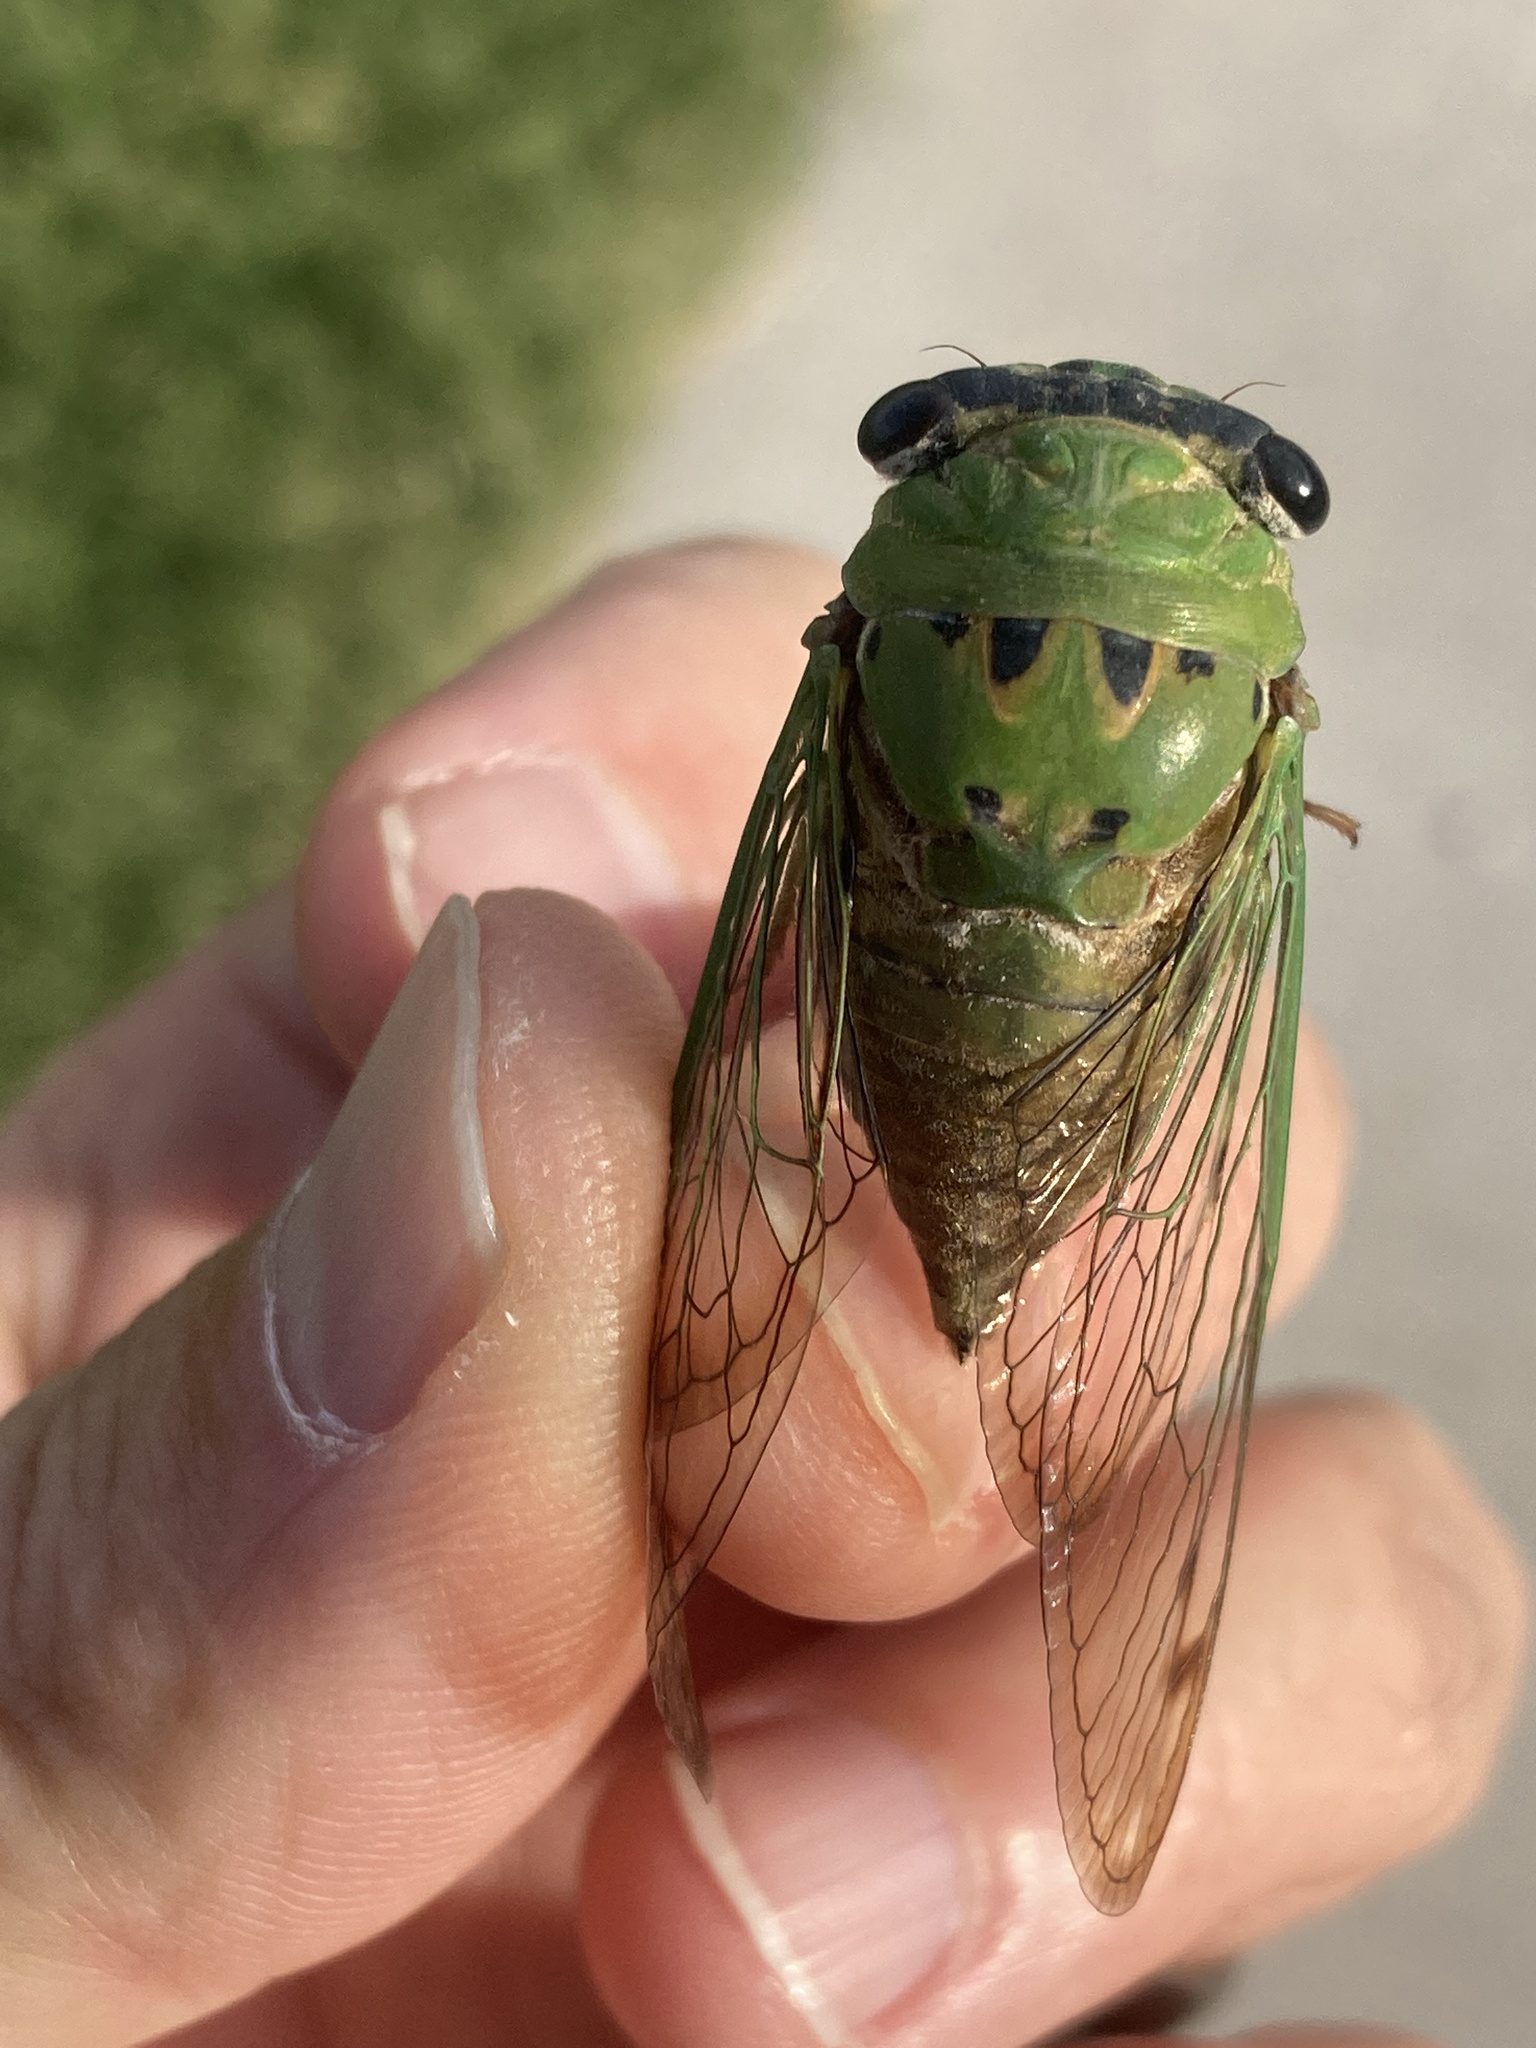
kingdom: Animalia
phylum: Arthropoda
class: Insecta
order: Hemiptera
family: Cicadidae
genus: Neotibicen
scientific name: Neotibicen superbus
